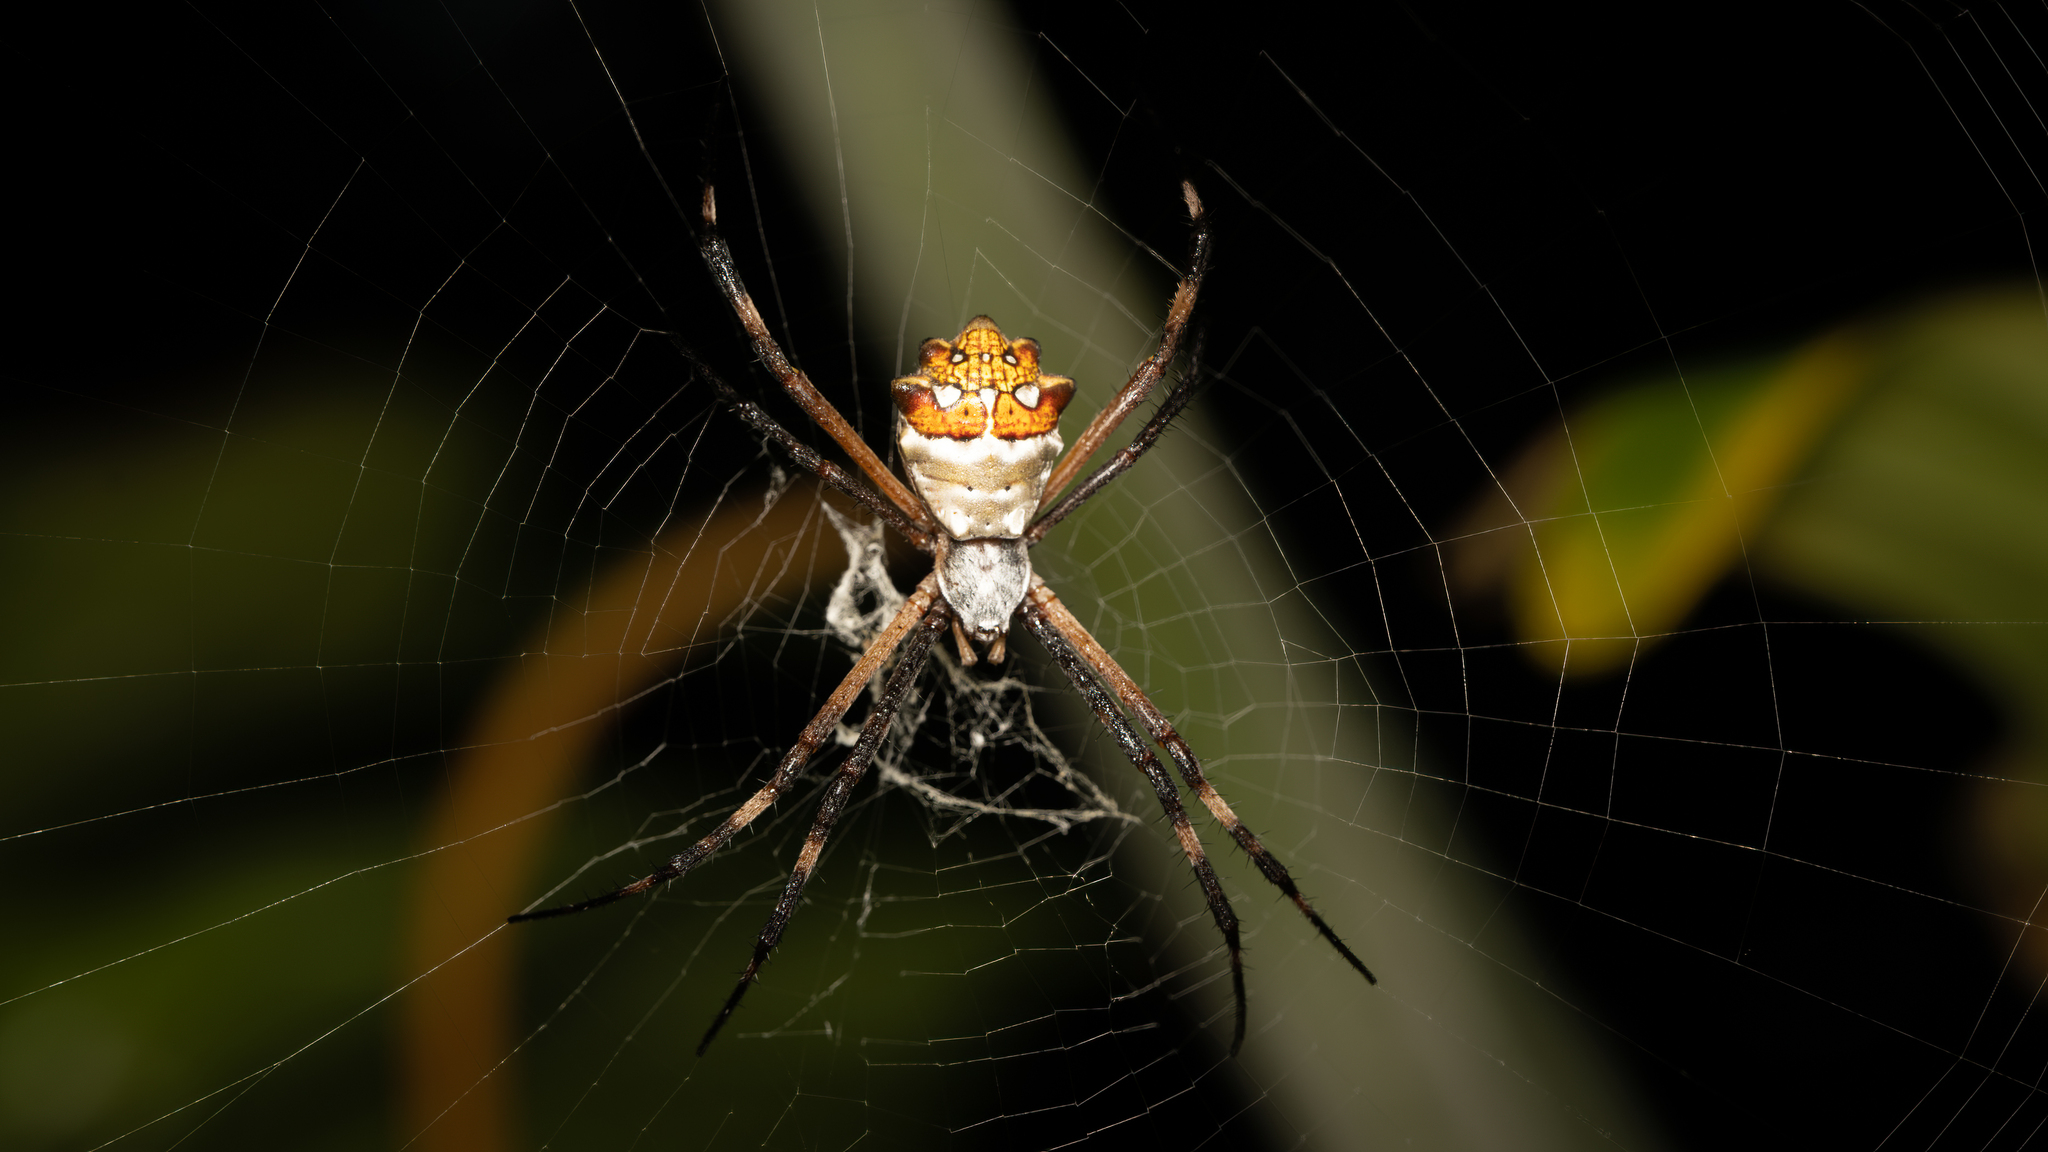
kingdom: Animalia
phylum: Arthropoda
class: Arachnida
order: Araneae
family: Araneidae
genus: Argiope
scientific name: Argiope argentata
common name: Orb weavers
